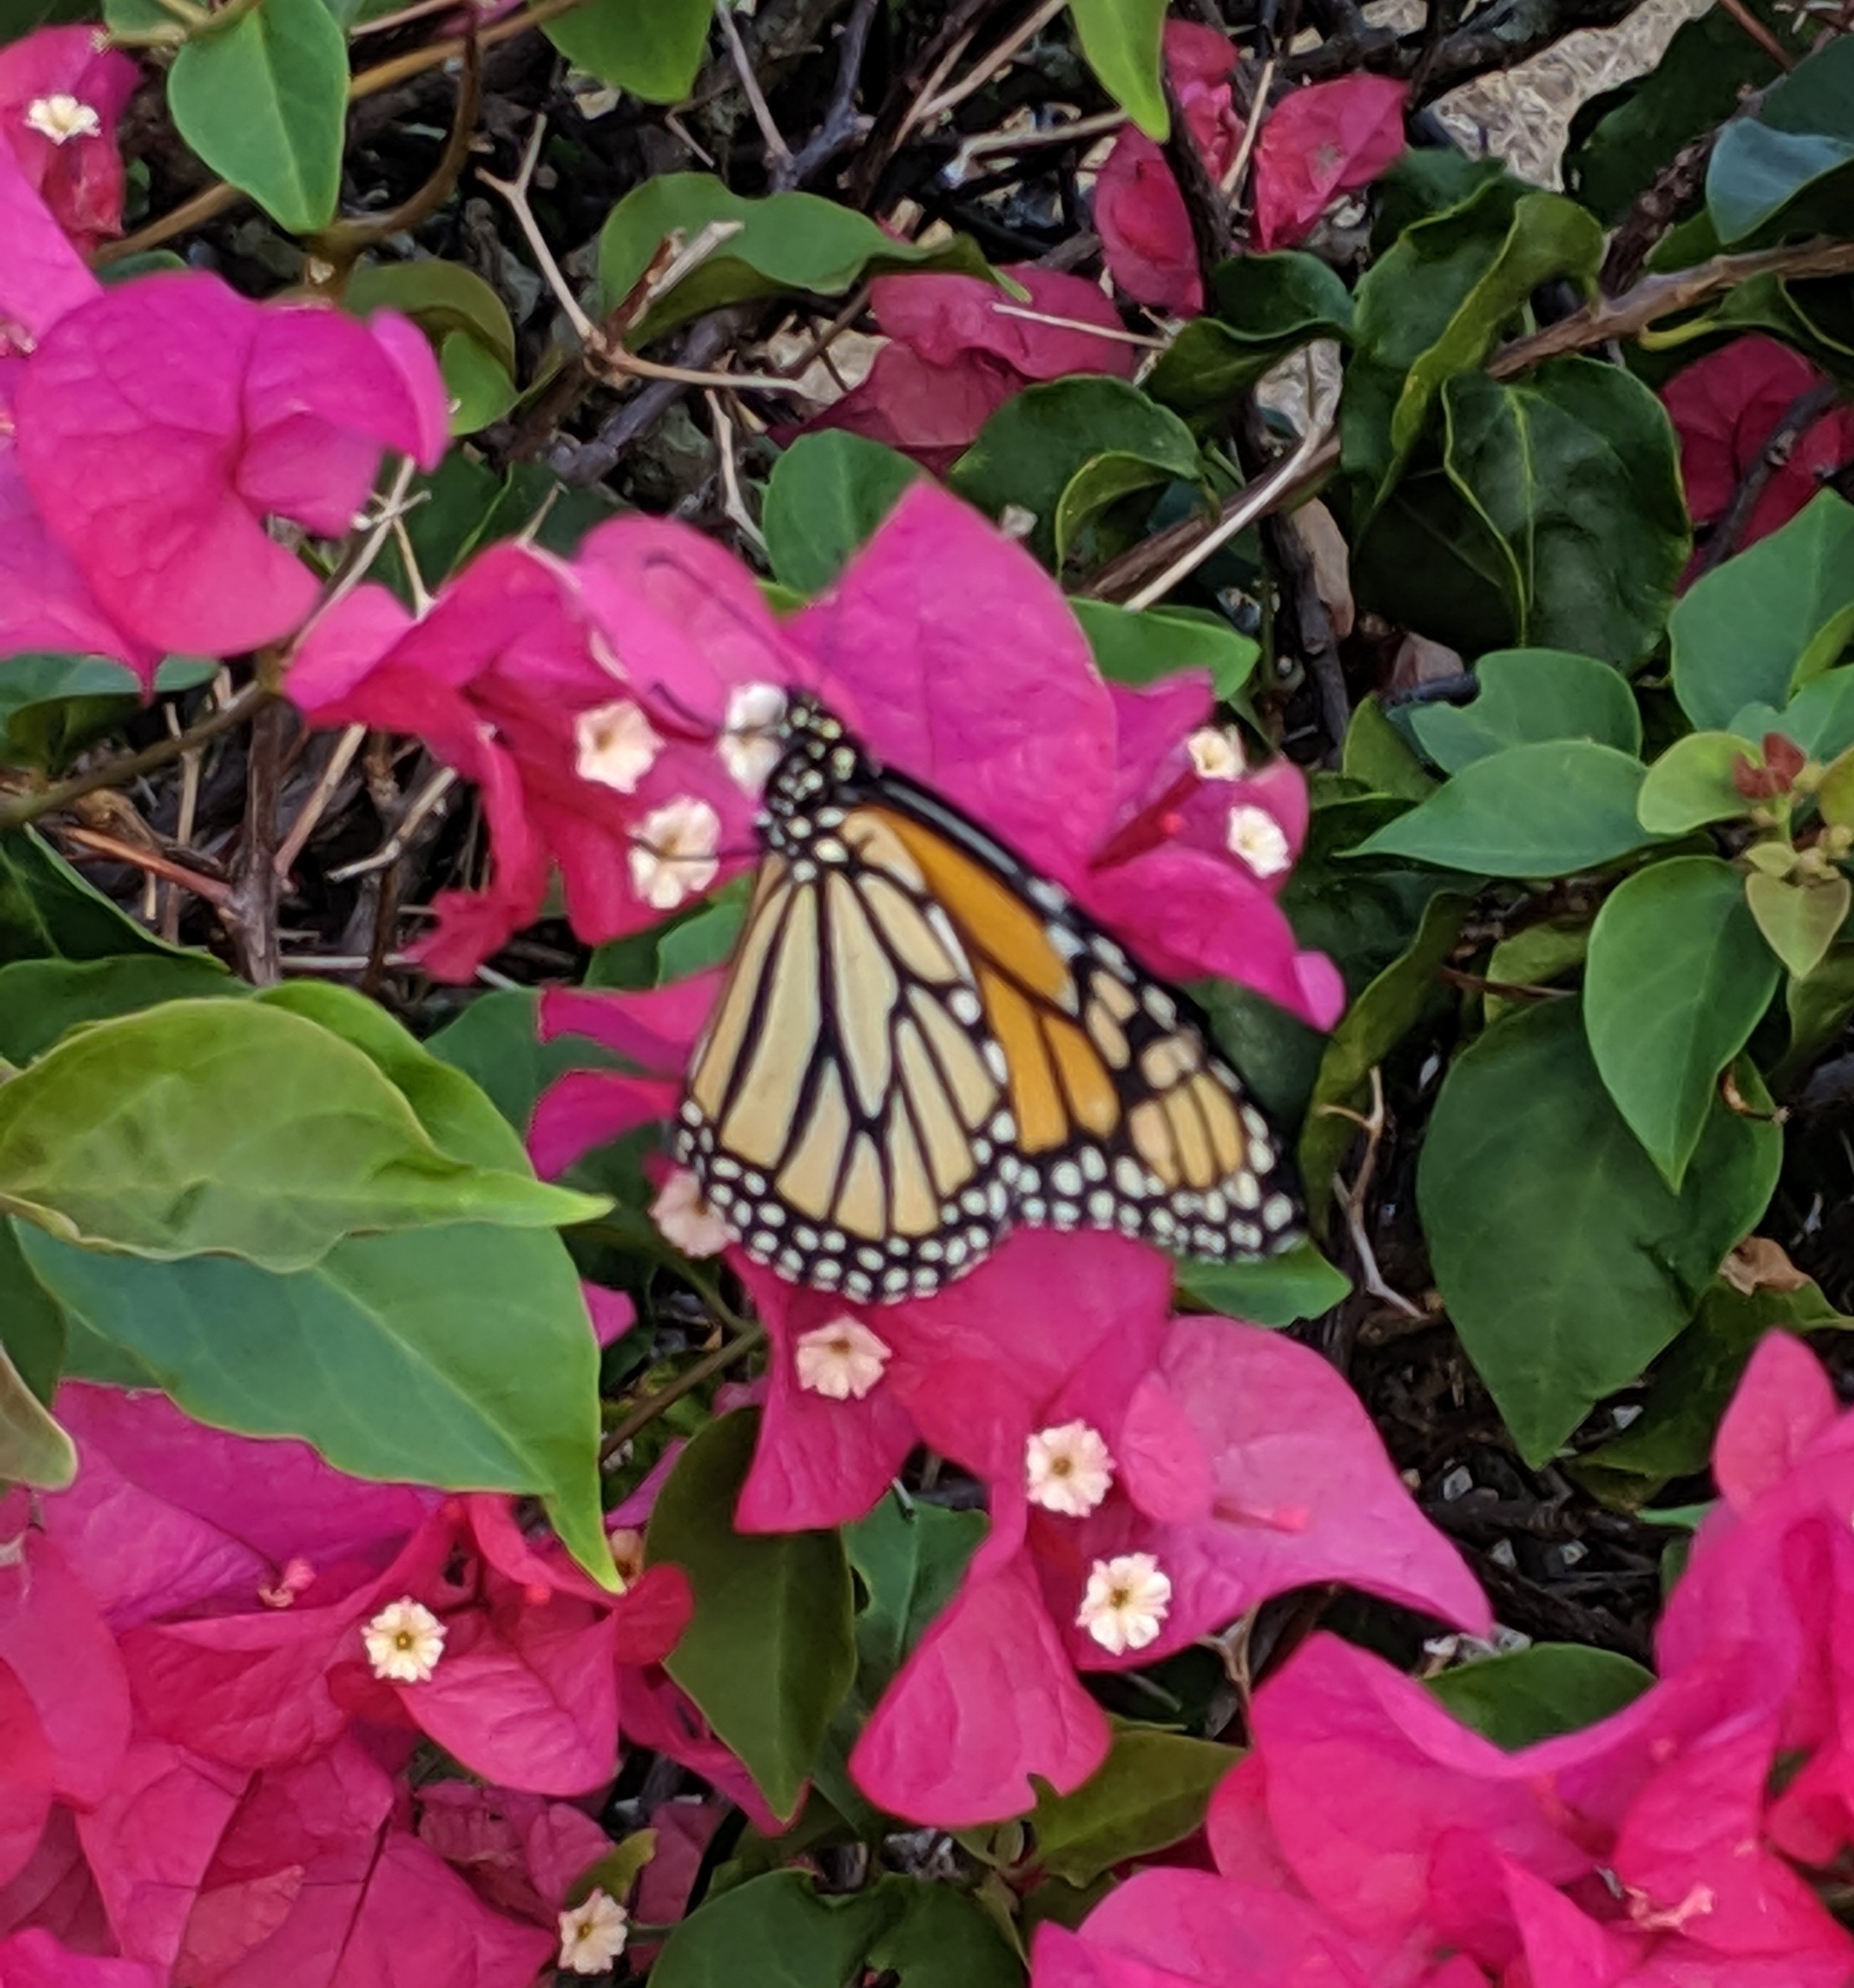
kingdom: Animalia
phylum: Arthropoda
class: Insecta
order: Lepidoptera
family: Nymphalidae
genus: Danaus
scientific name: Danaus plexippus
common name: Monarch
